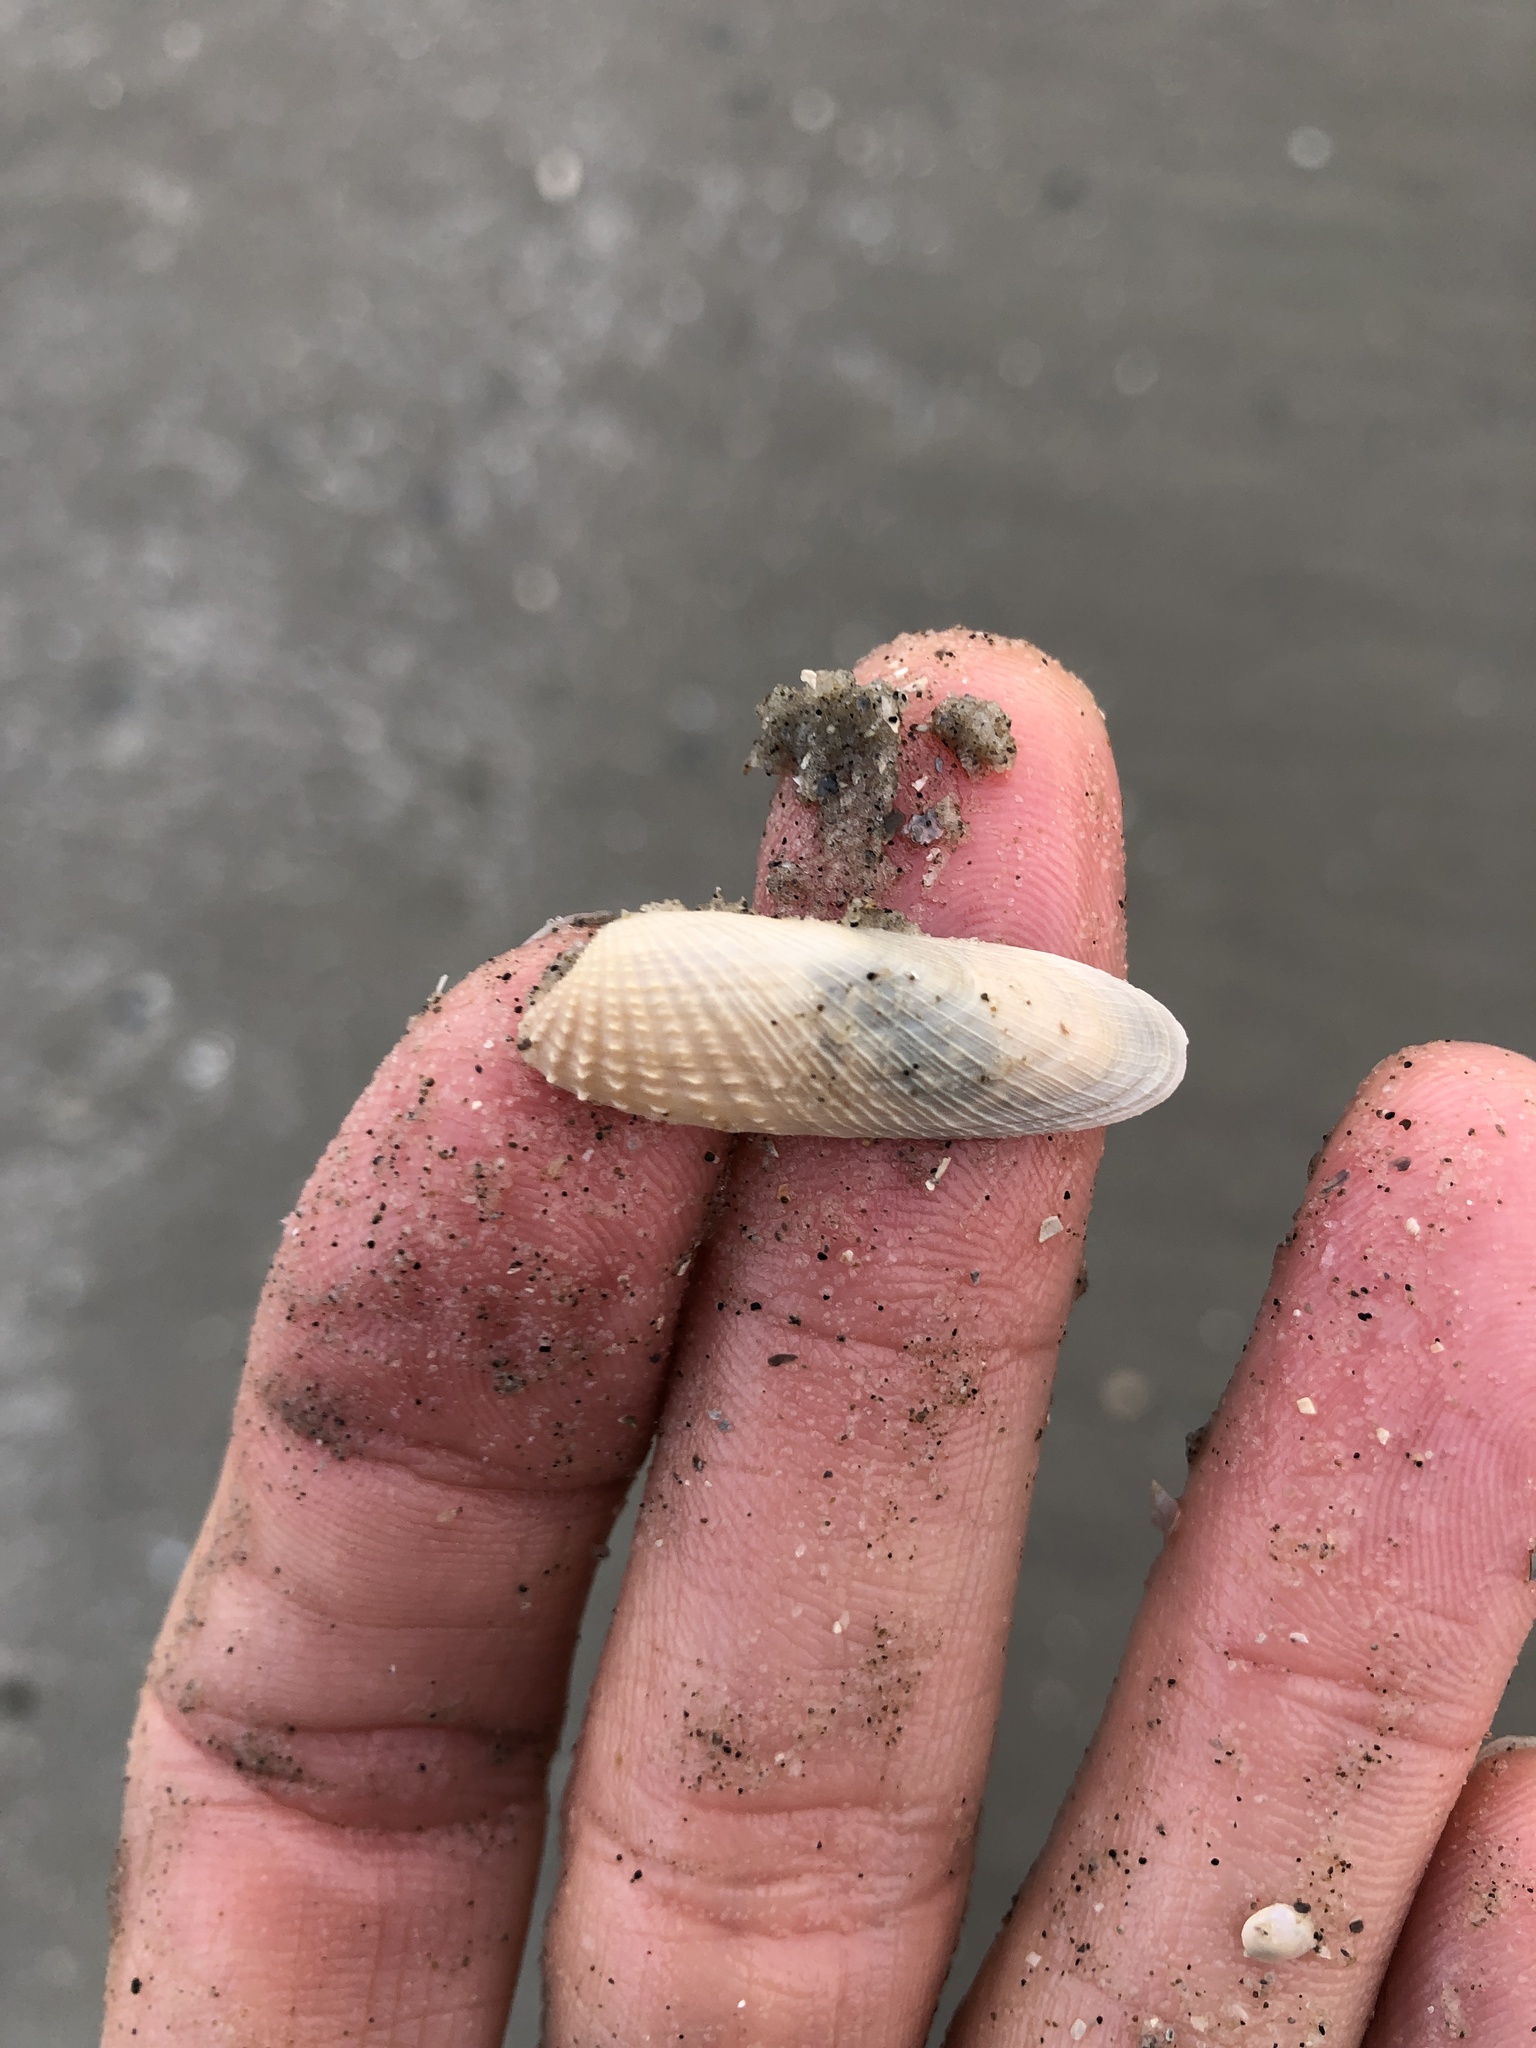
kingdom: Animalia
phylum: Mollusca
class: Bivalvia
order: Venerida
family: Veneridae
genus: Petricolaria
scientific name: Petricolaria pholadiformis
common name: American piddock
